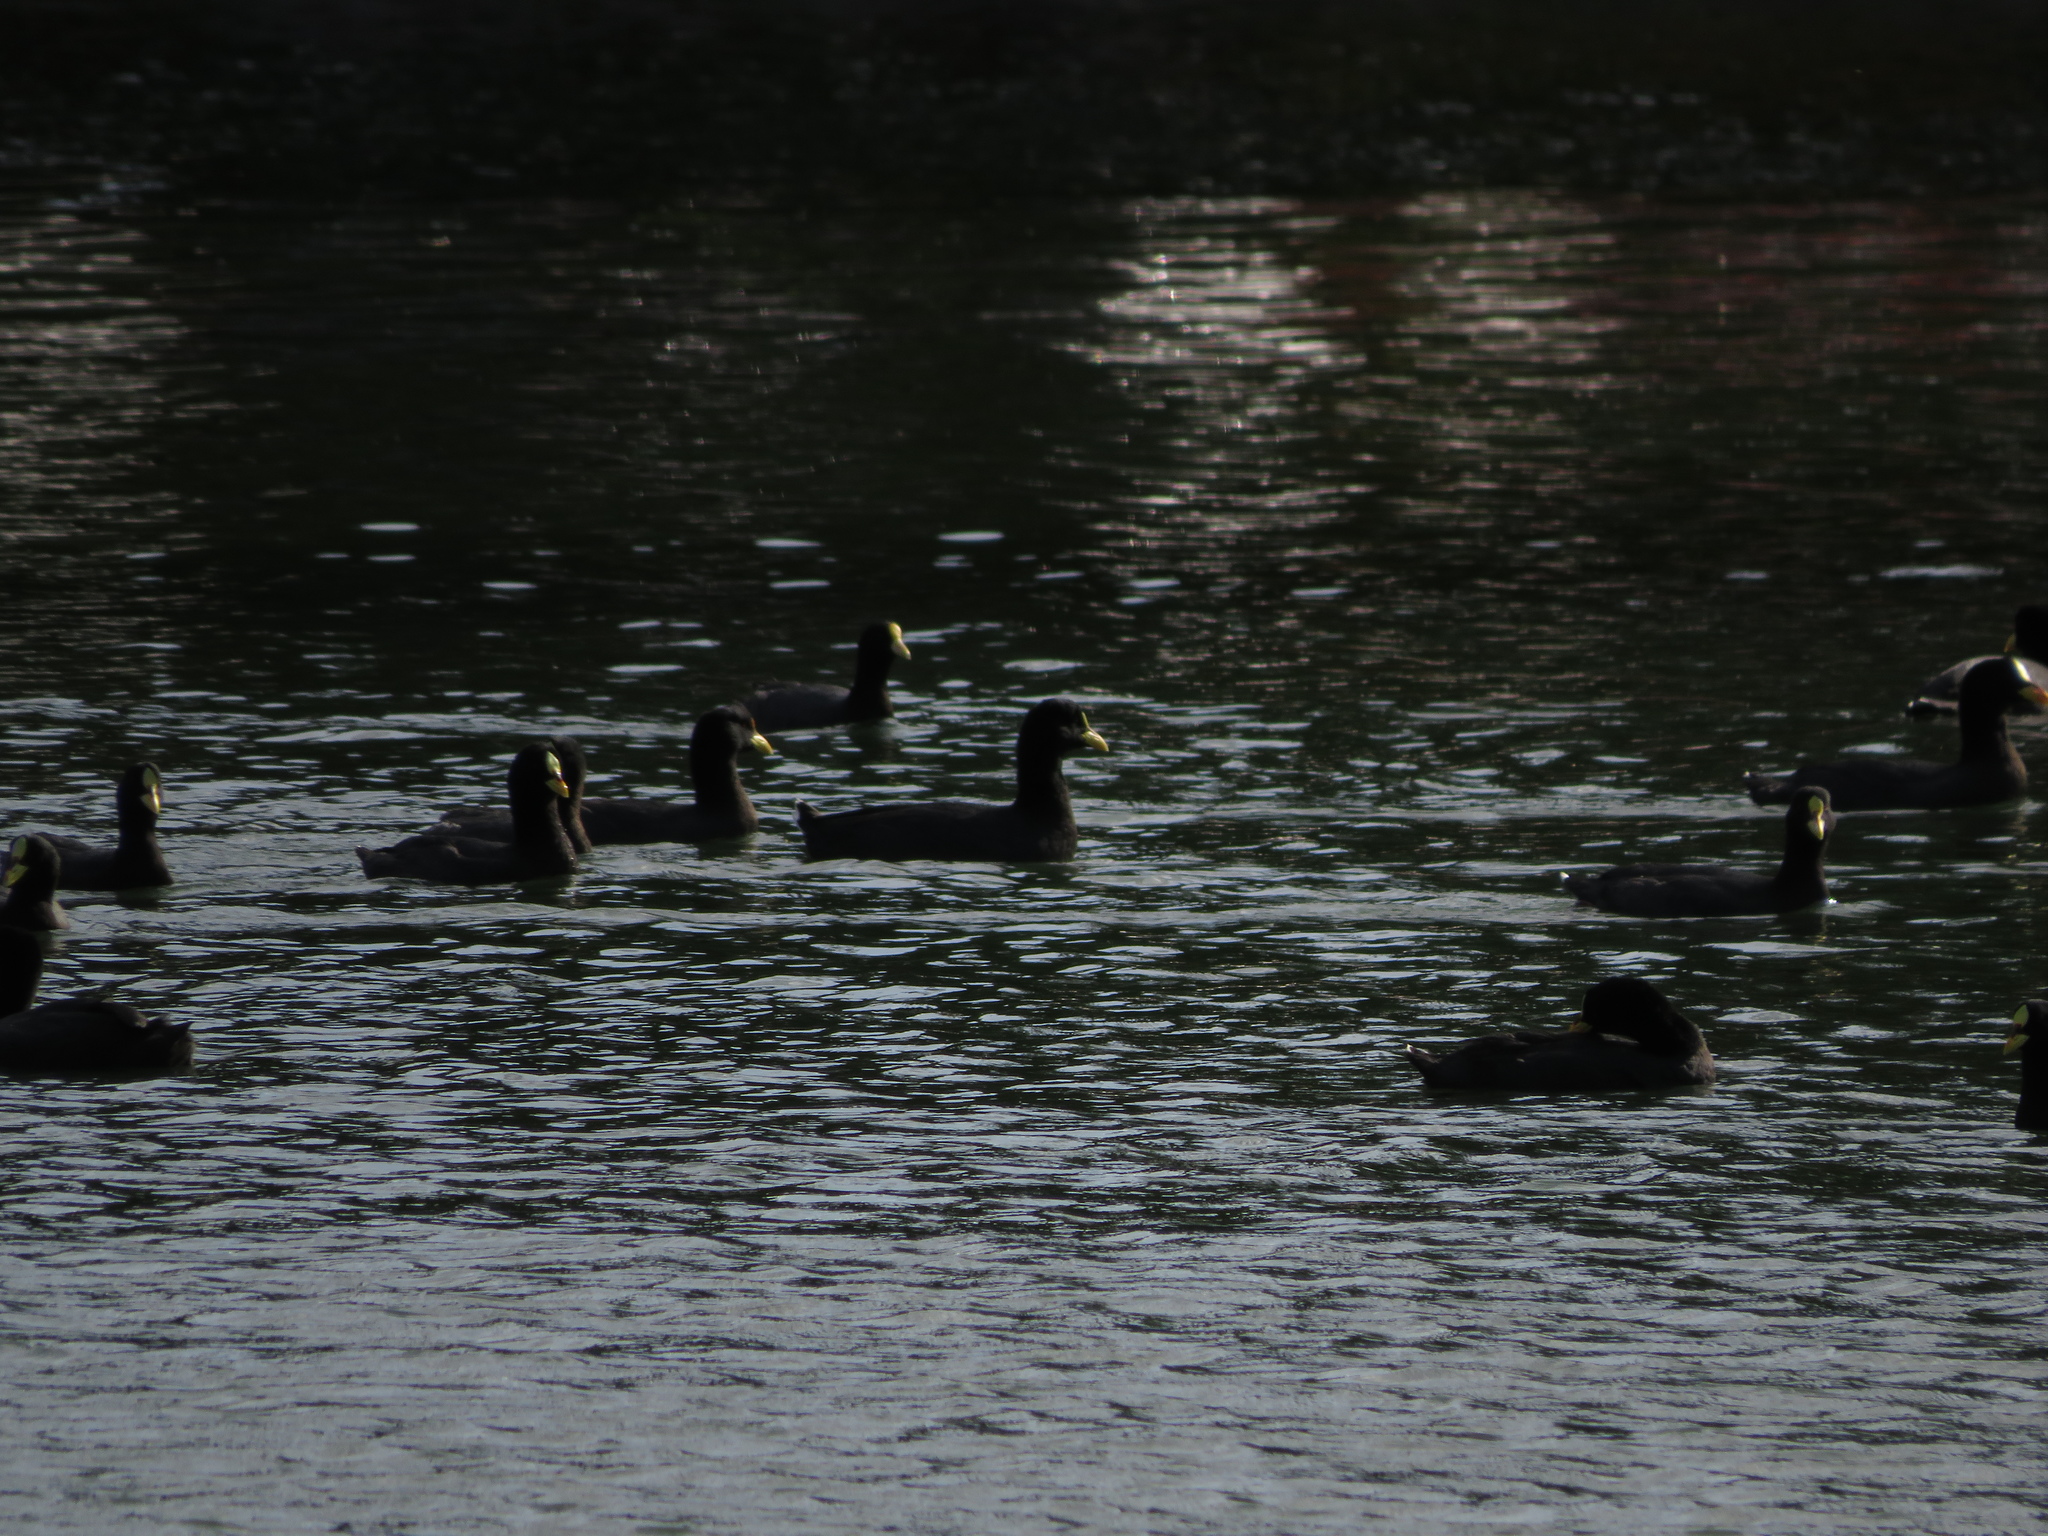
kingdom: Animalia
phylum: Chordata
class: Aves
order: Gruiformes
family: Rallidae
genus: Fulica
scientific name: Fulica armillata
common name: Red-gartered coot
